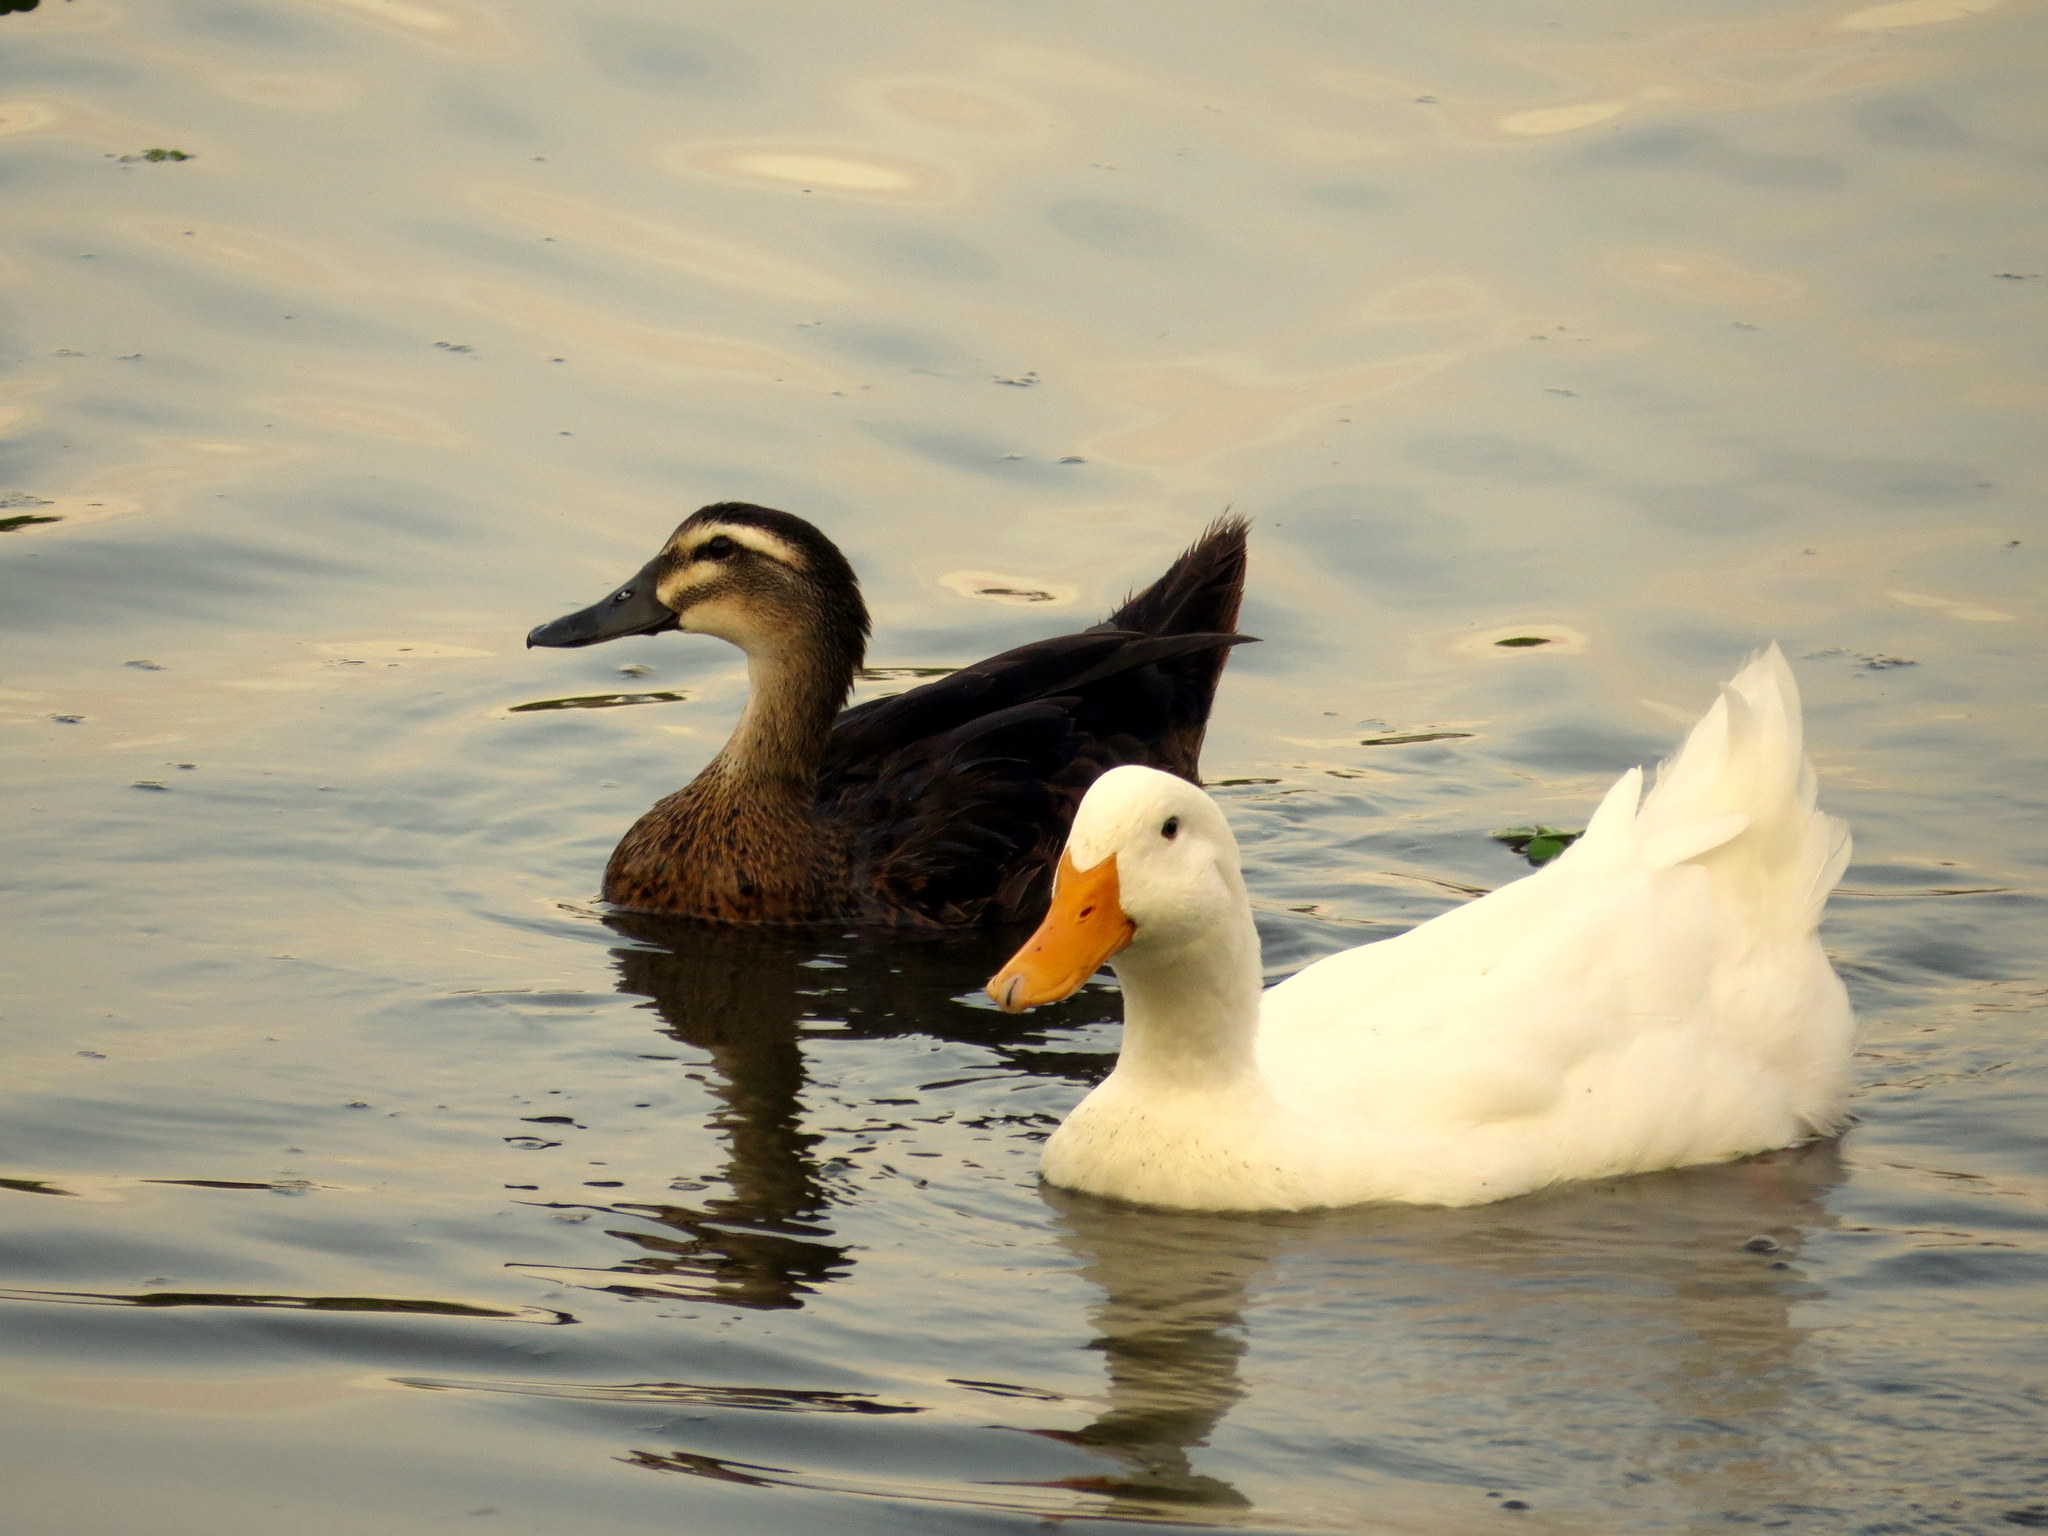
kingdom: Animalia
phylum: Chordata
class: Aves
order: Anseriformes
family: Anatidae
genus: Anas
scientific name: Anas platyrhynchos
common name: Mallard
